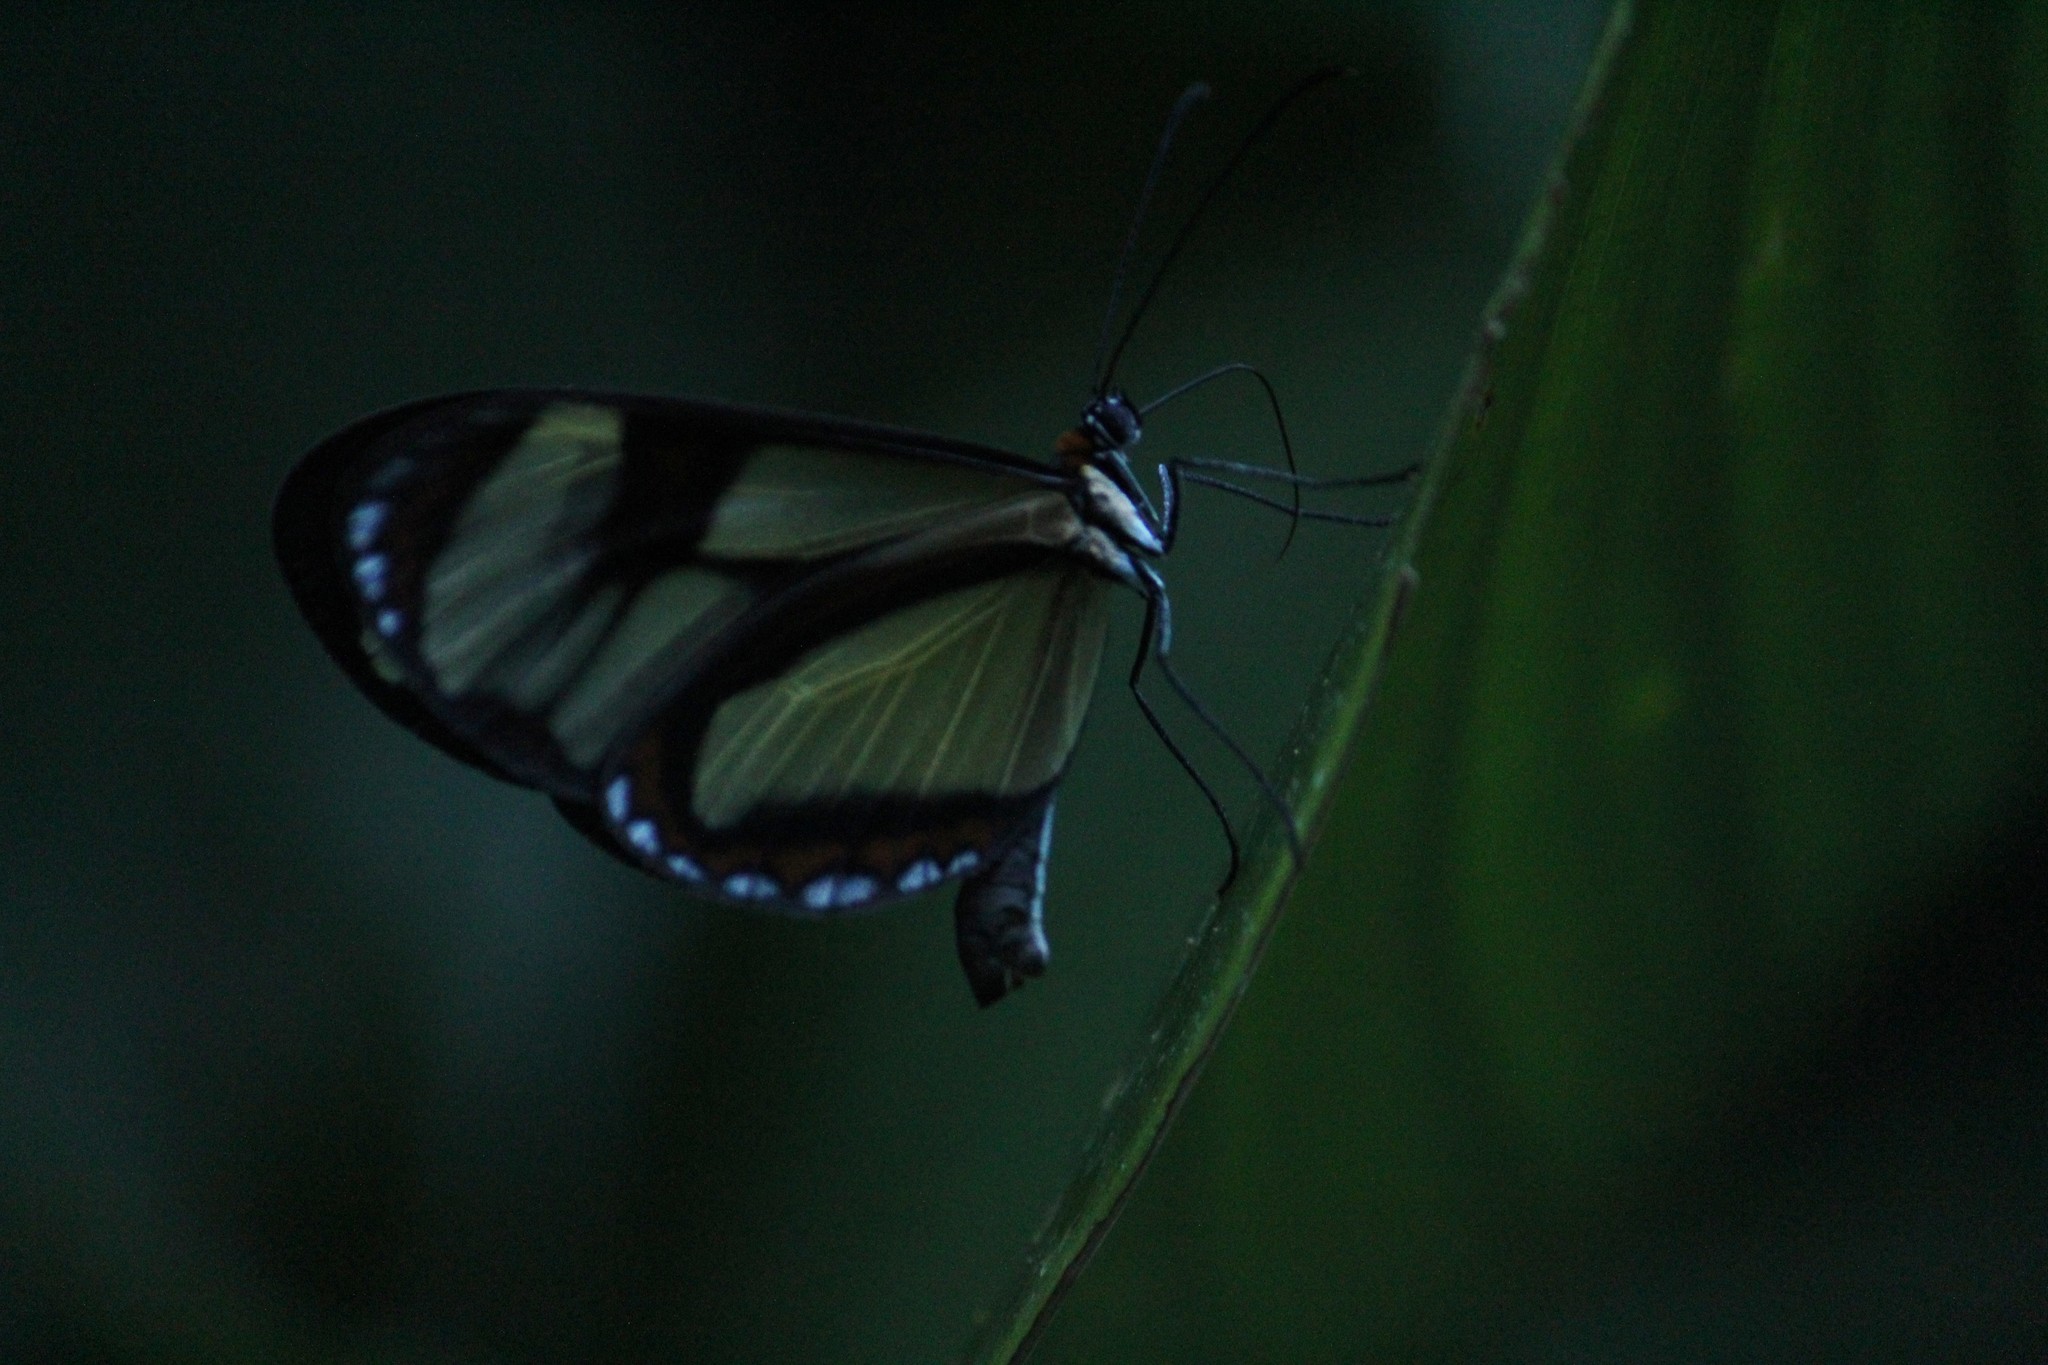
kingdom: Animalia
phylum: Arthropoda
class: Insecta
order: Lepidoptera
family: Nymphalidae
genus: Epityches
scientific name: Epityches eupompe
